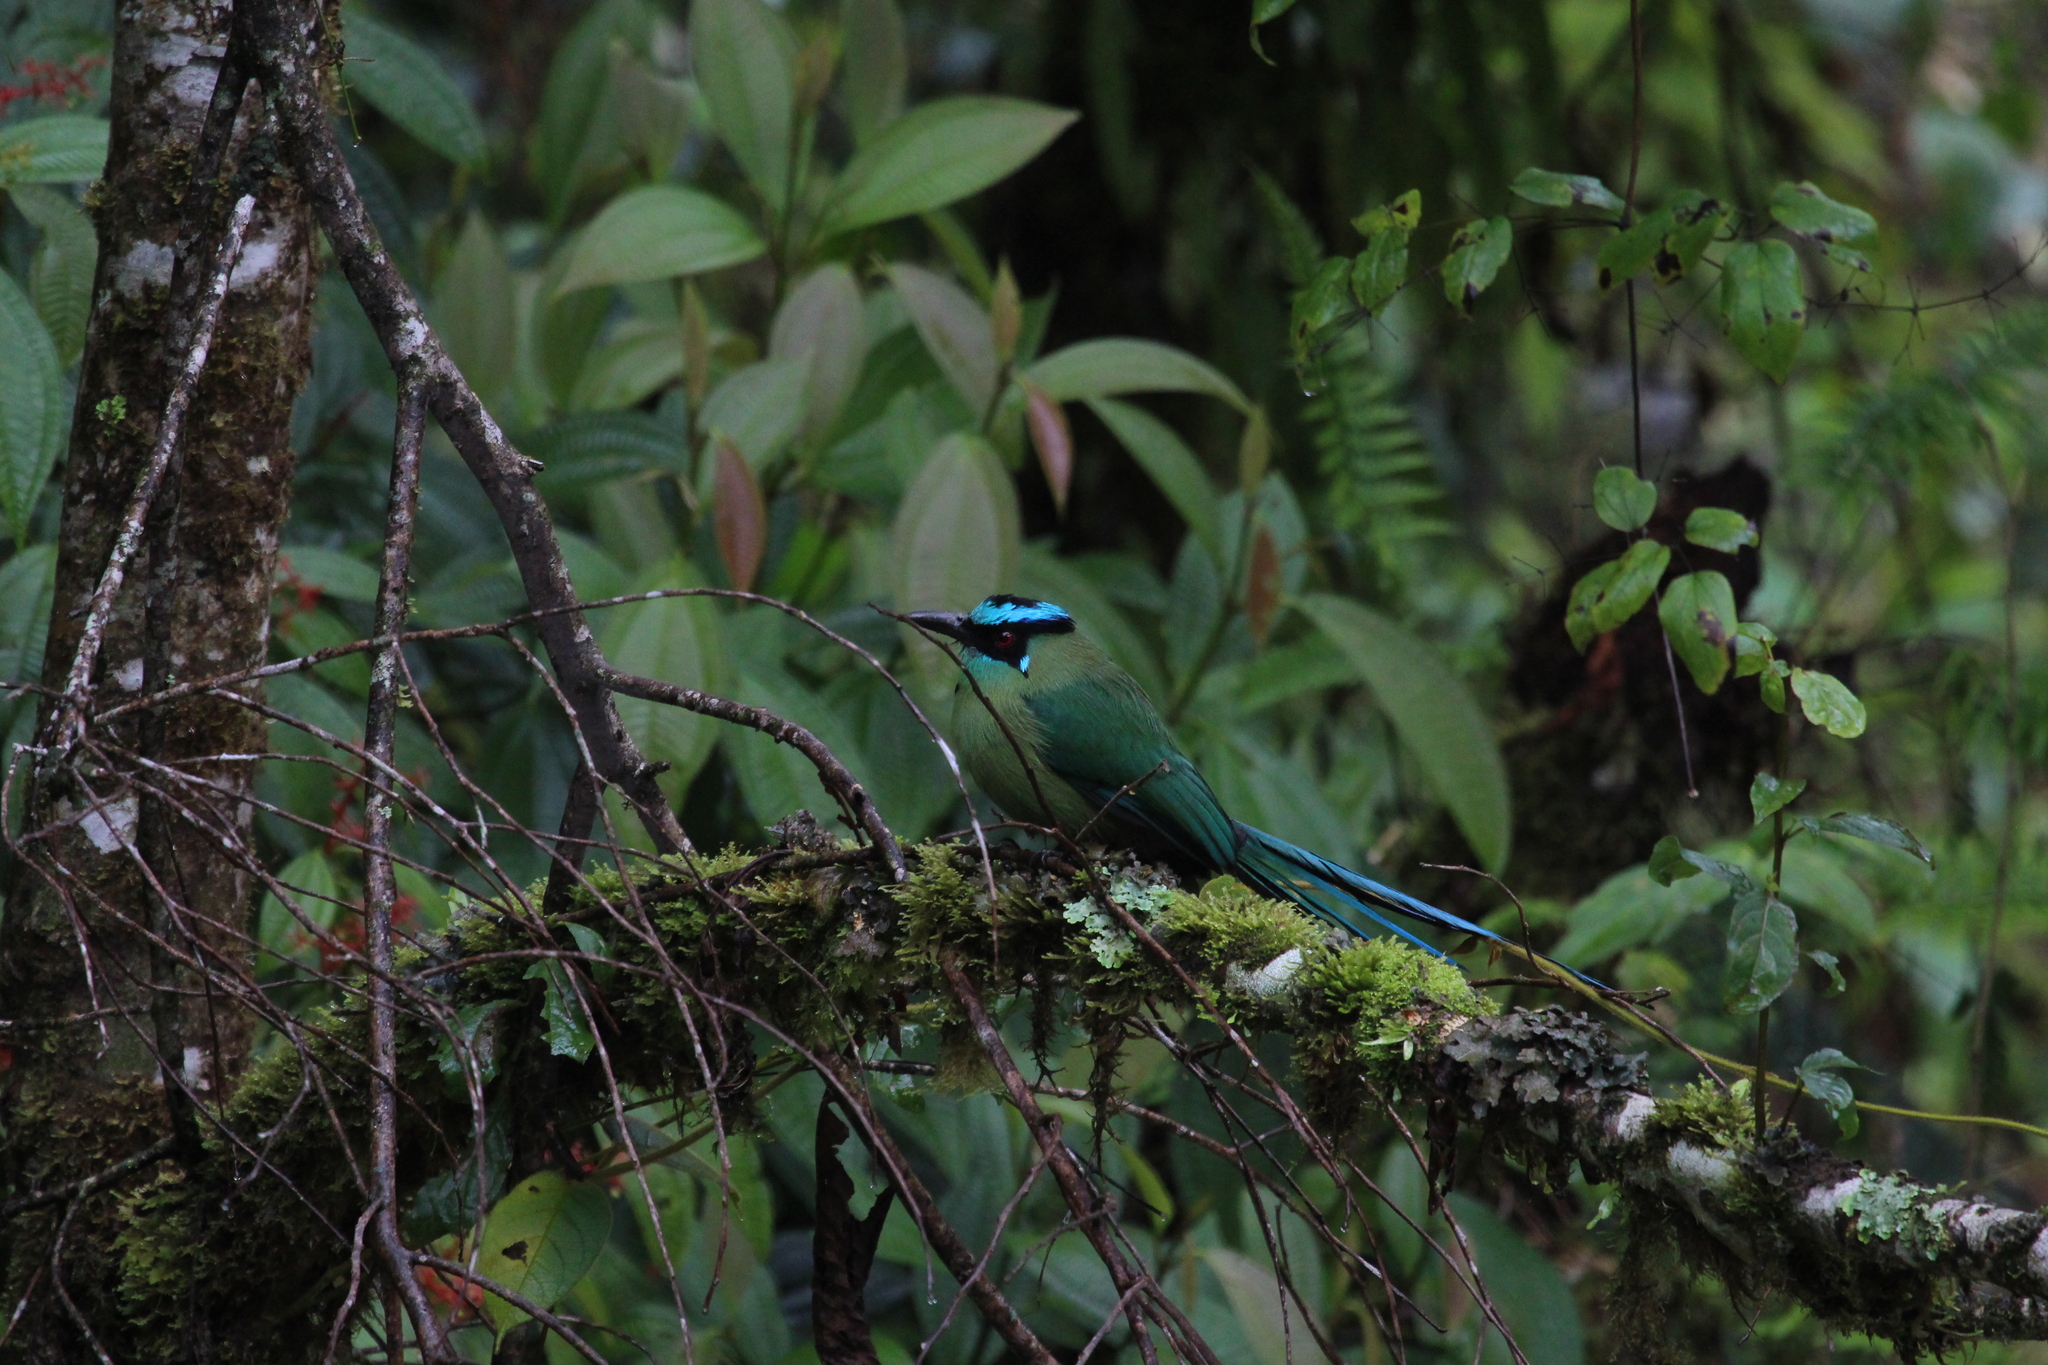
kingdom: Animalia
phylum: Chordata
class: Aves
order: Coraciiformes
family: Momotidae
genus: Momotus
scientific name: Momotus aequatorialis
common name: Andean motmot
